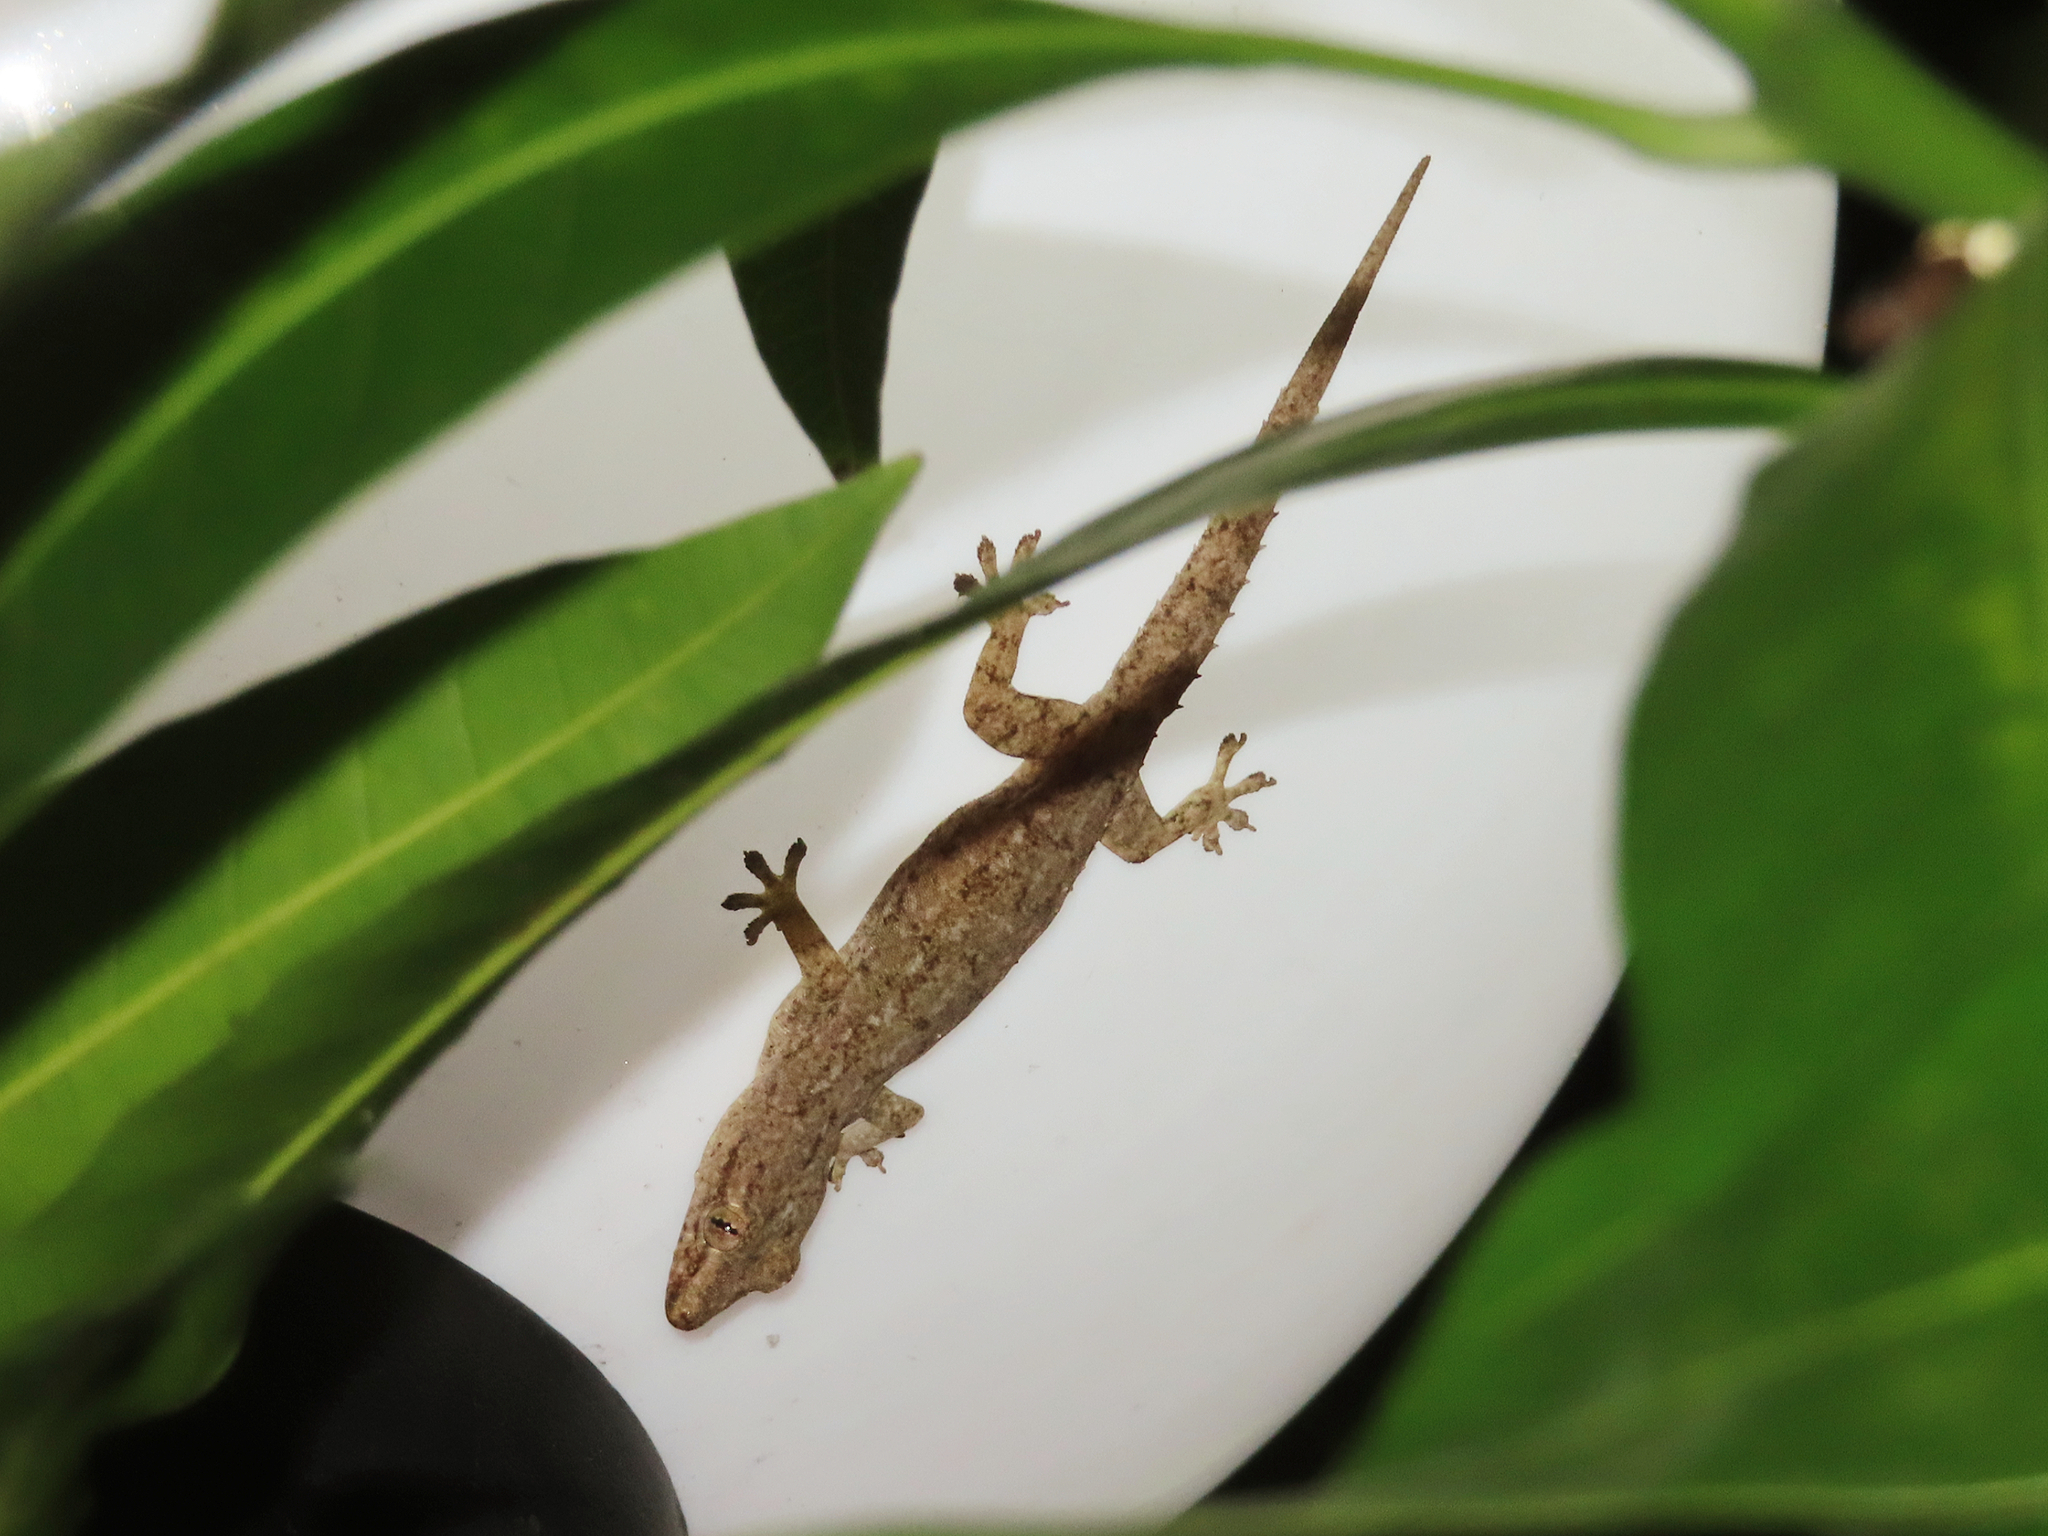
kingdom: Animalia
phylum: Chordata
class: Squamata
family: Gekkonidae
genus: Hemidactylus
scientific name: Hemidactylus frenatus
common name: Common house gecko
